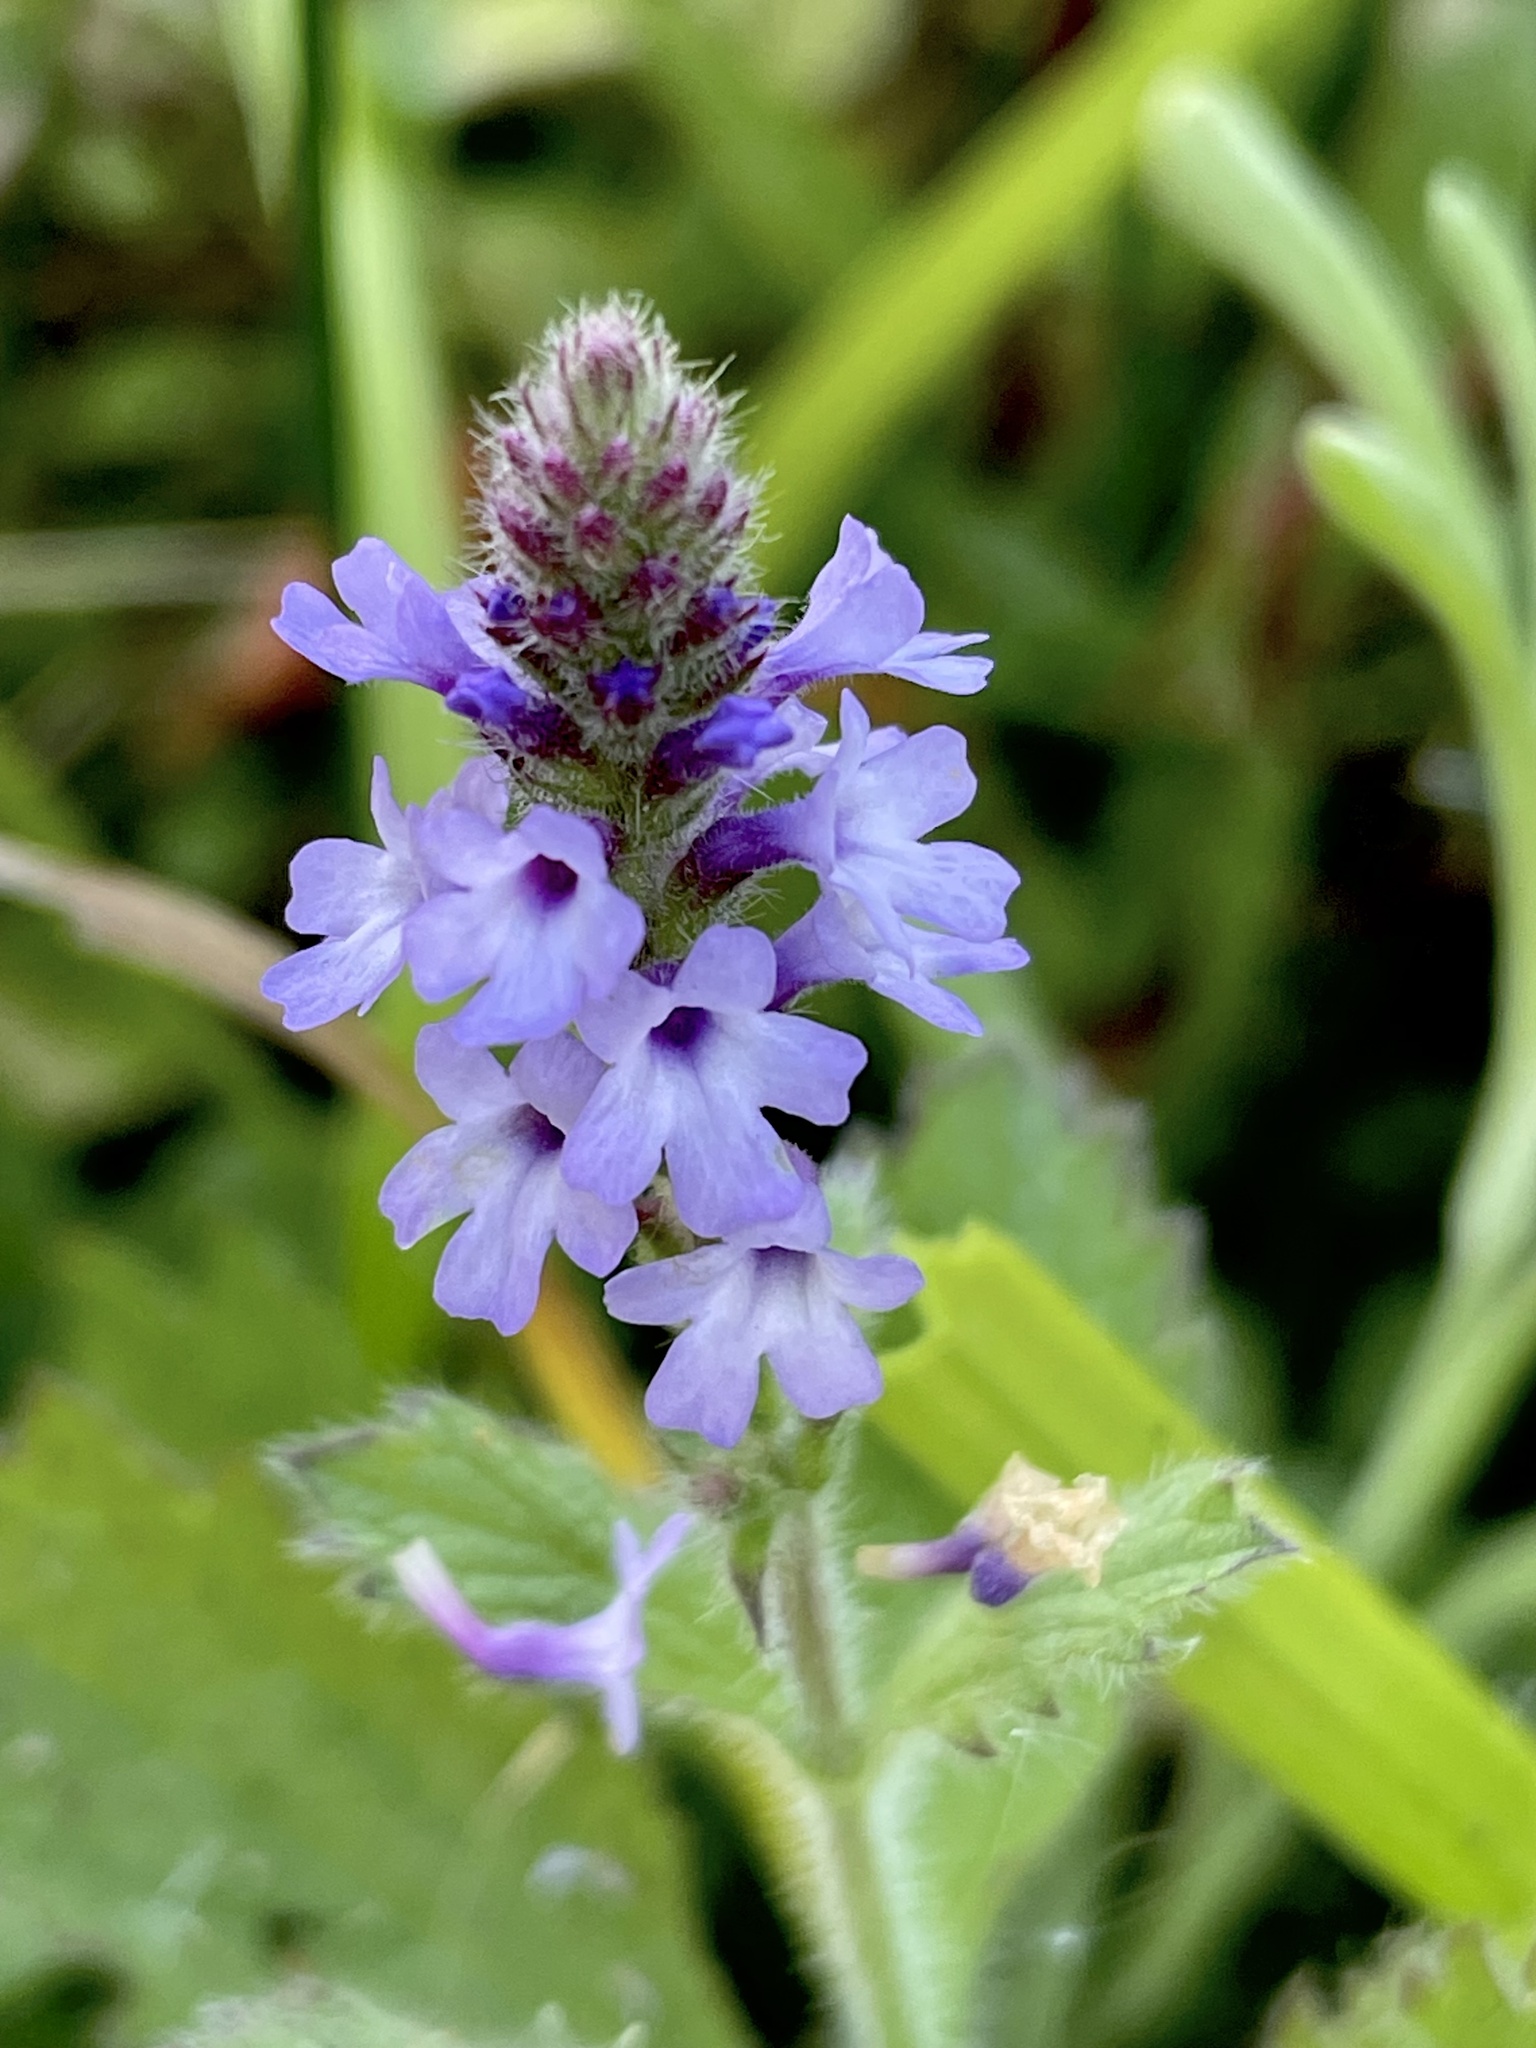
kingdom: Plantae
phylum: Tracheophyta
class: Magnoliopsida
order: Lamiales
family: Verbenaceae
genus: Verbena
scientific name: Verbena lasiostachys
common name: Vervain
